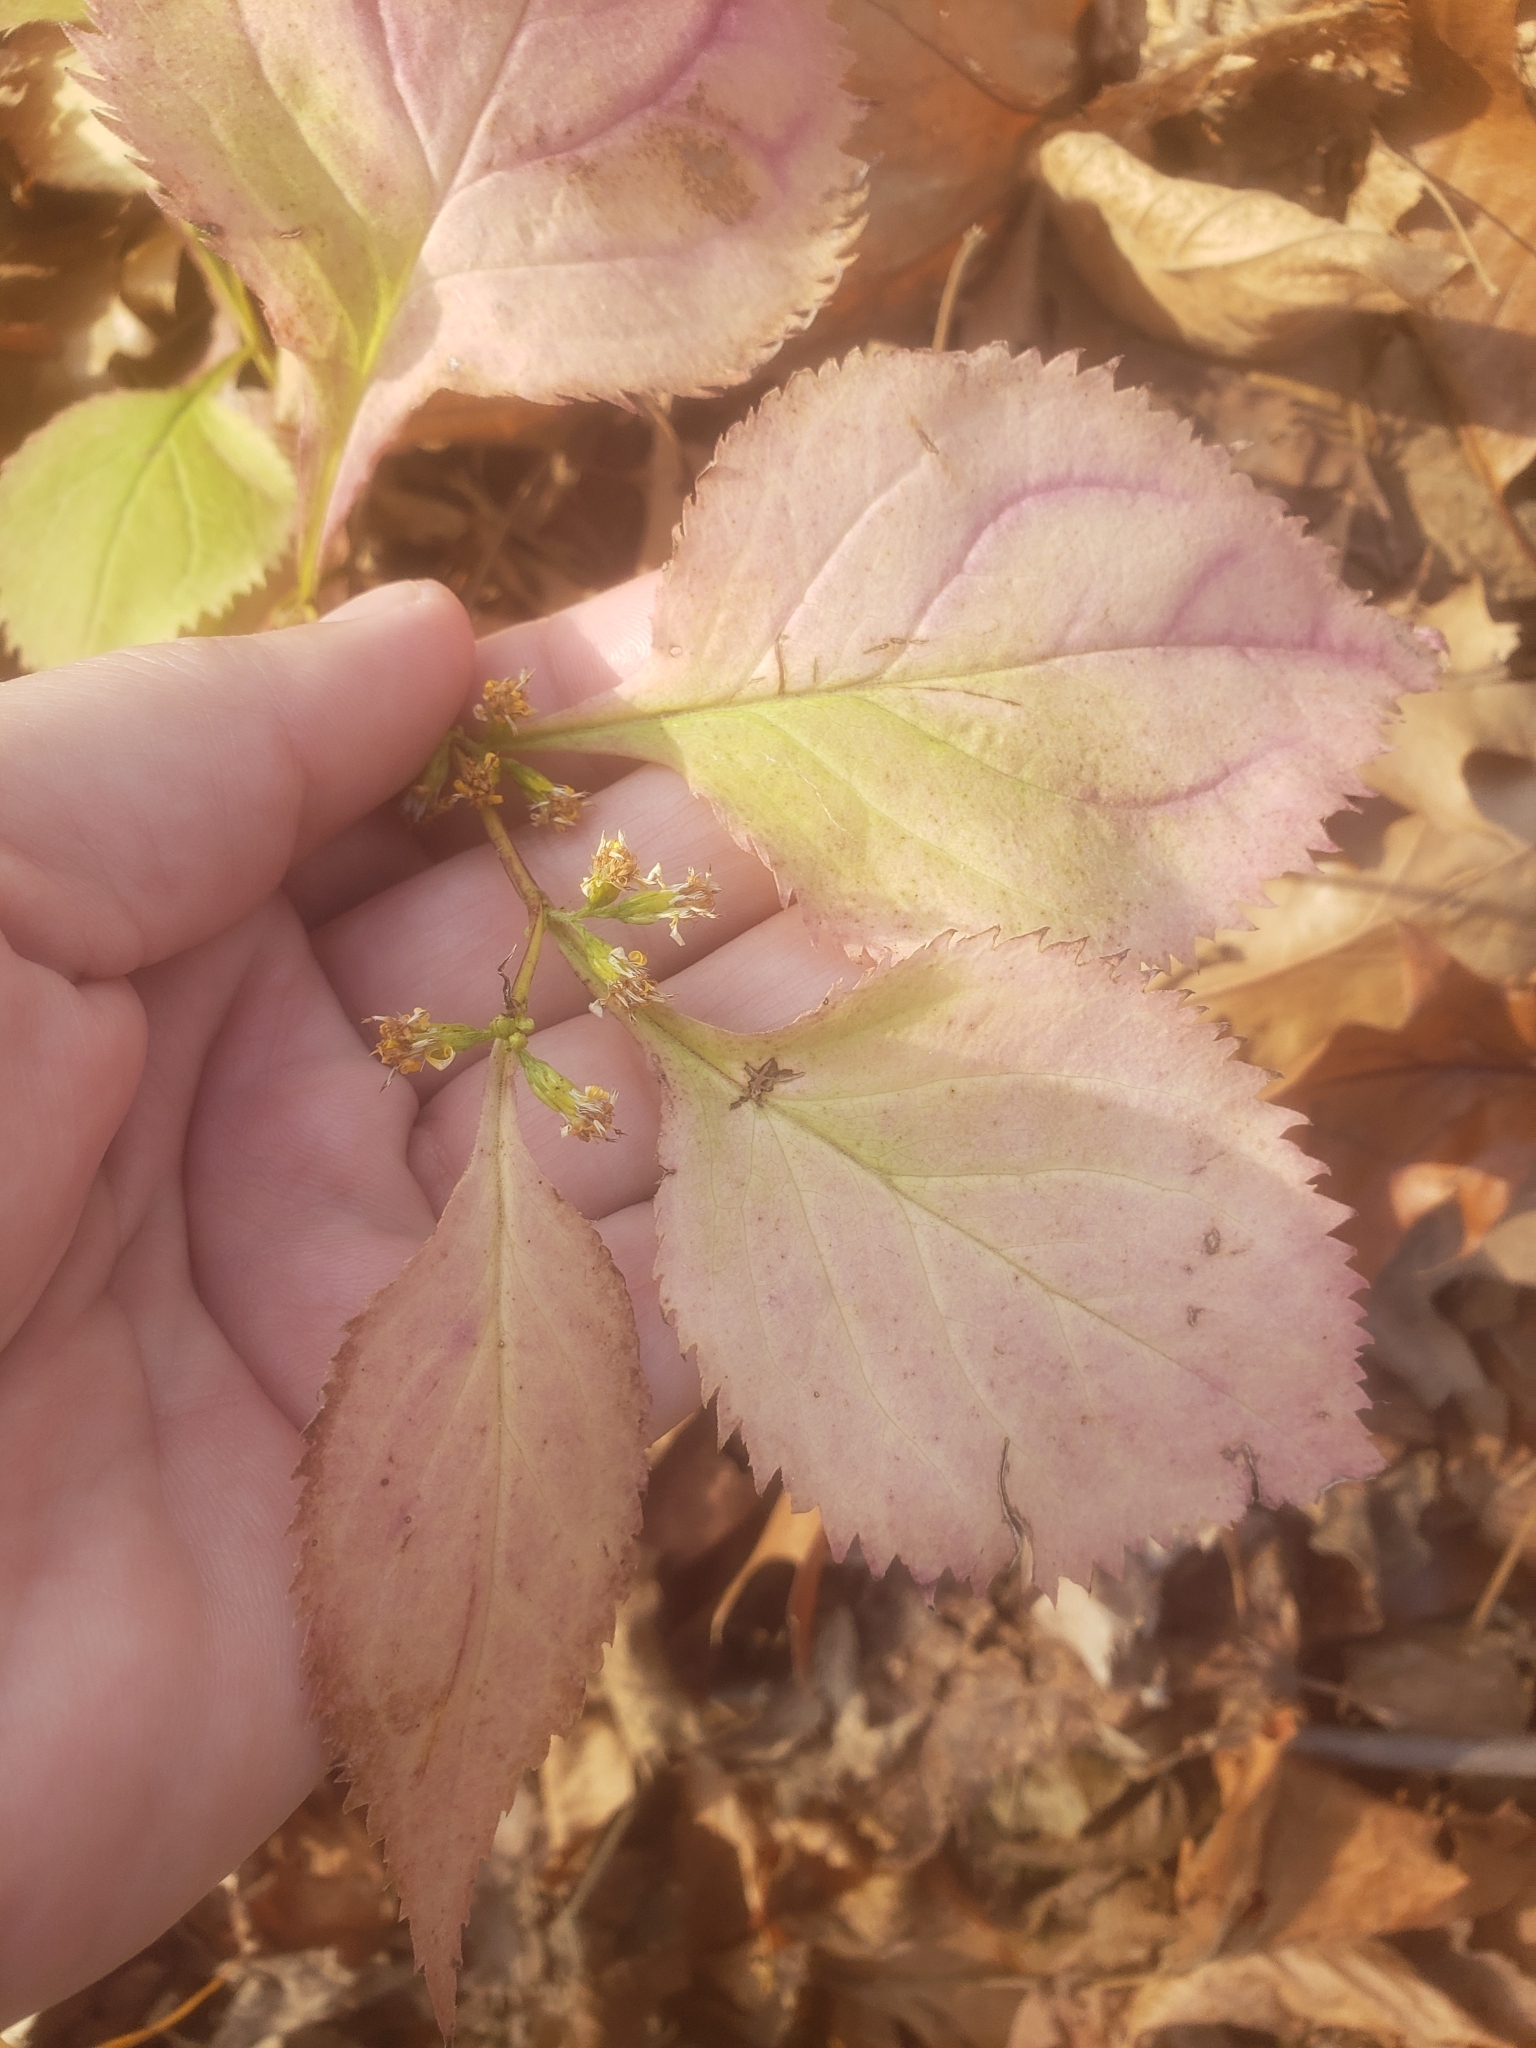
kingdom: Plantae
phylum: Tracheophyta
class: Magnoliopsida
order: Asterales
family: Asteraceae
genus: Solidago
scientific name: Solidago flexicaulis
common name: Zig-zag goldenrod
